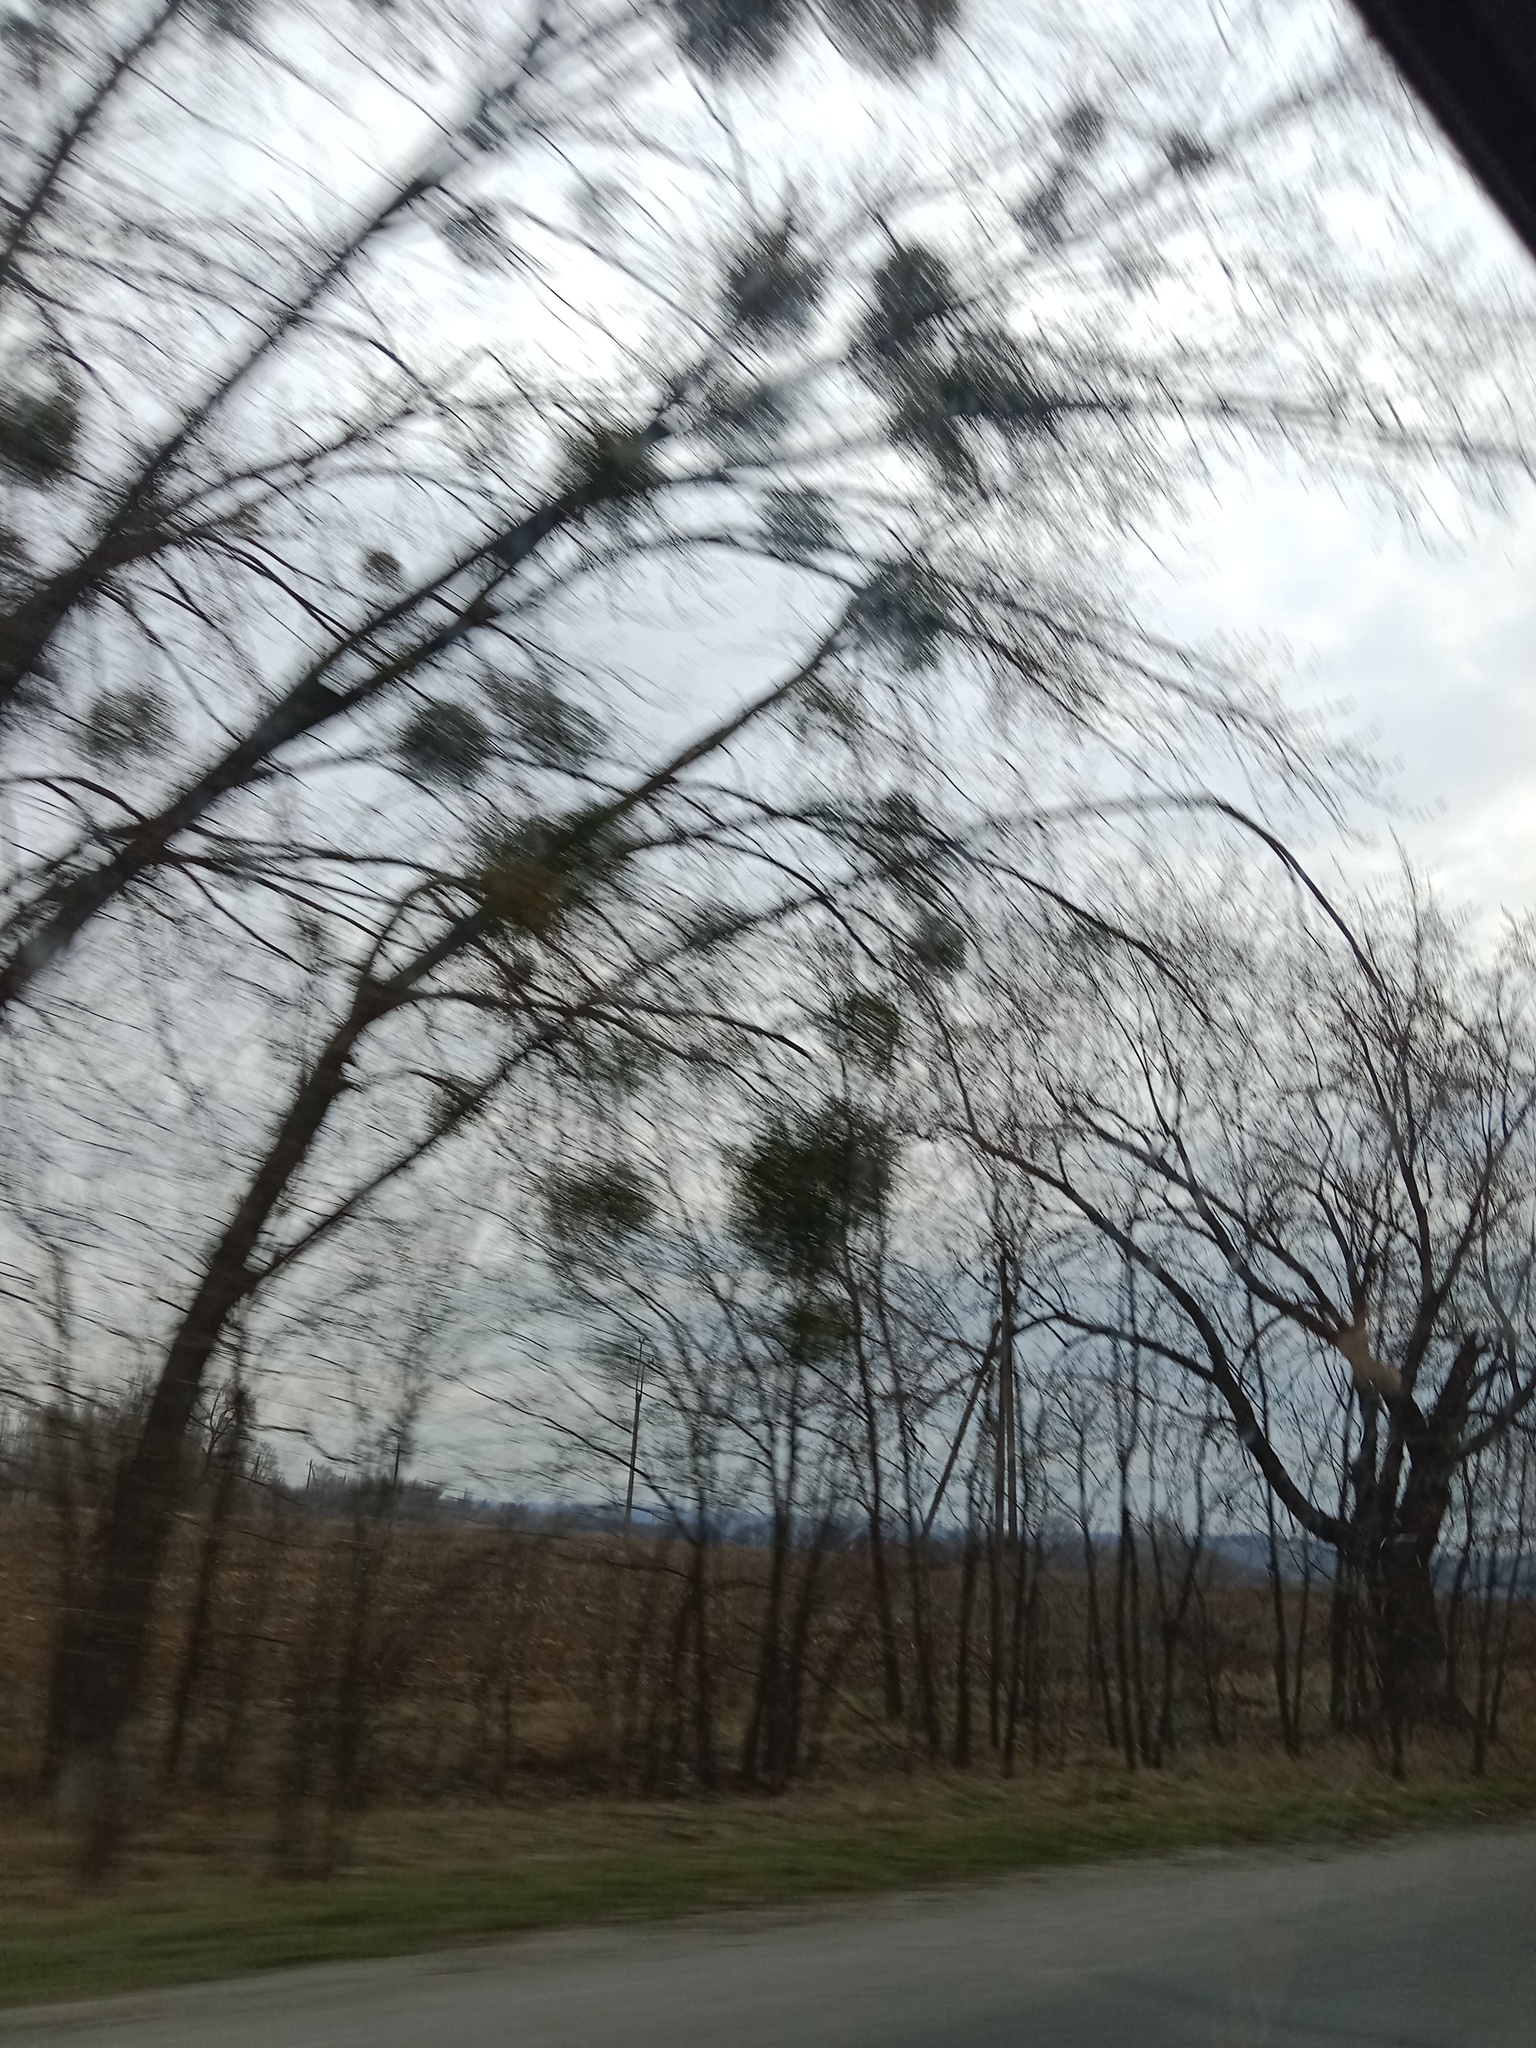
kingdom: Plantae
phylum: Tracheophyta
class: Magnoliopsida
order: Santalales
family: Viscaceae
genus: Viscum
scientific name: Viscum album
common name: Mistletoe
